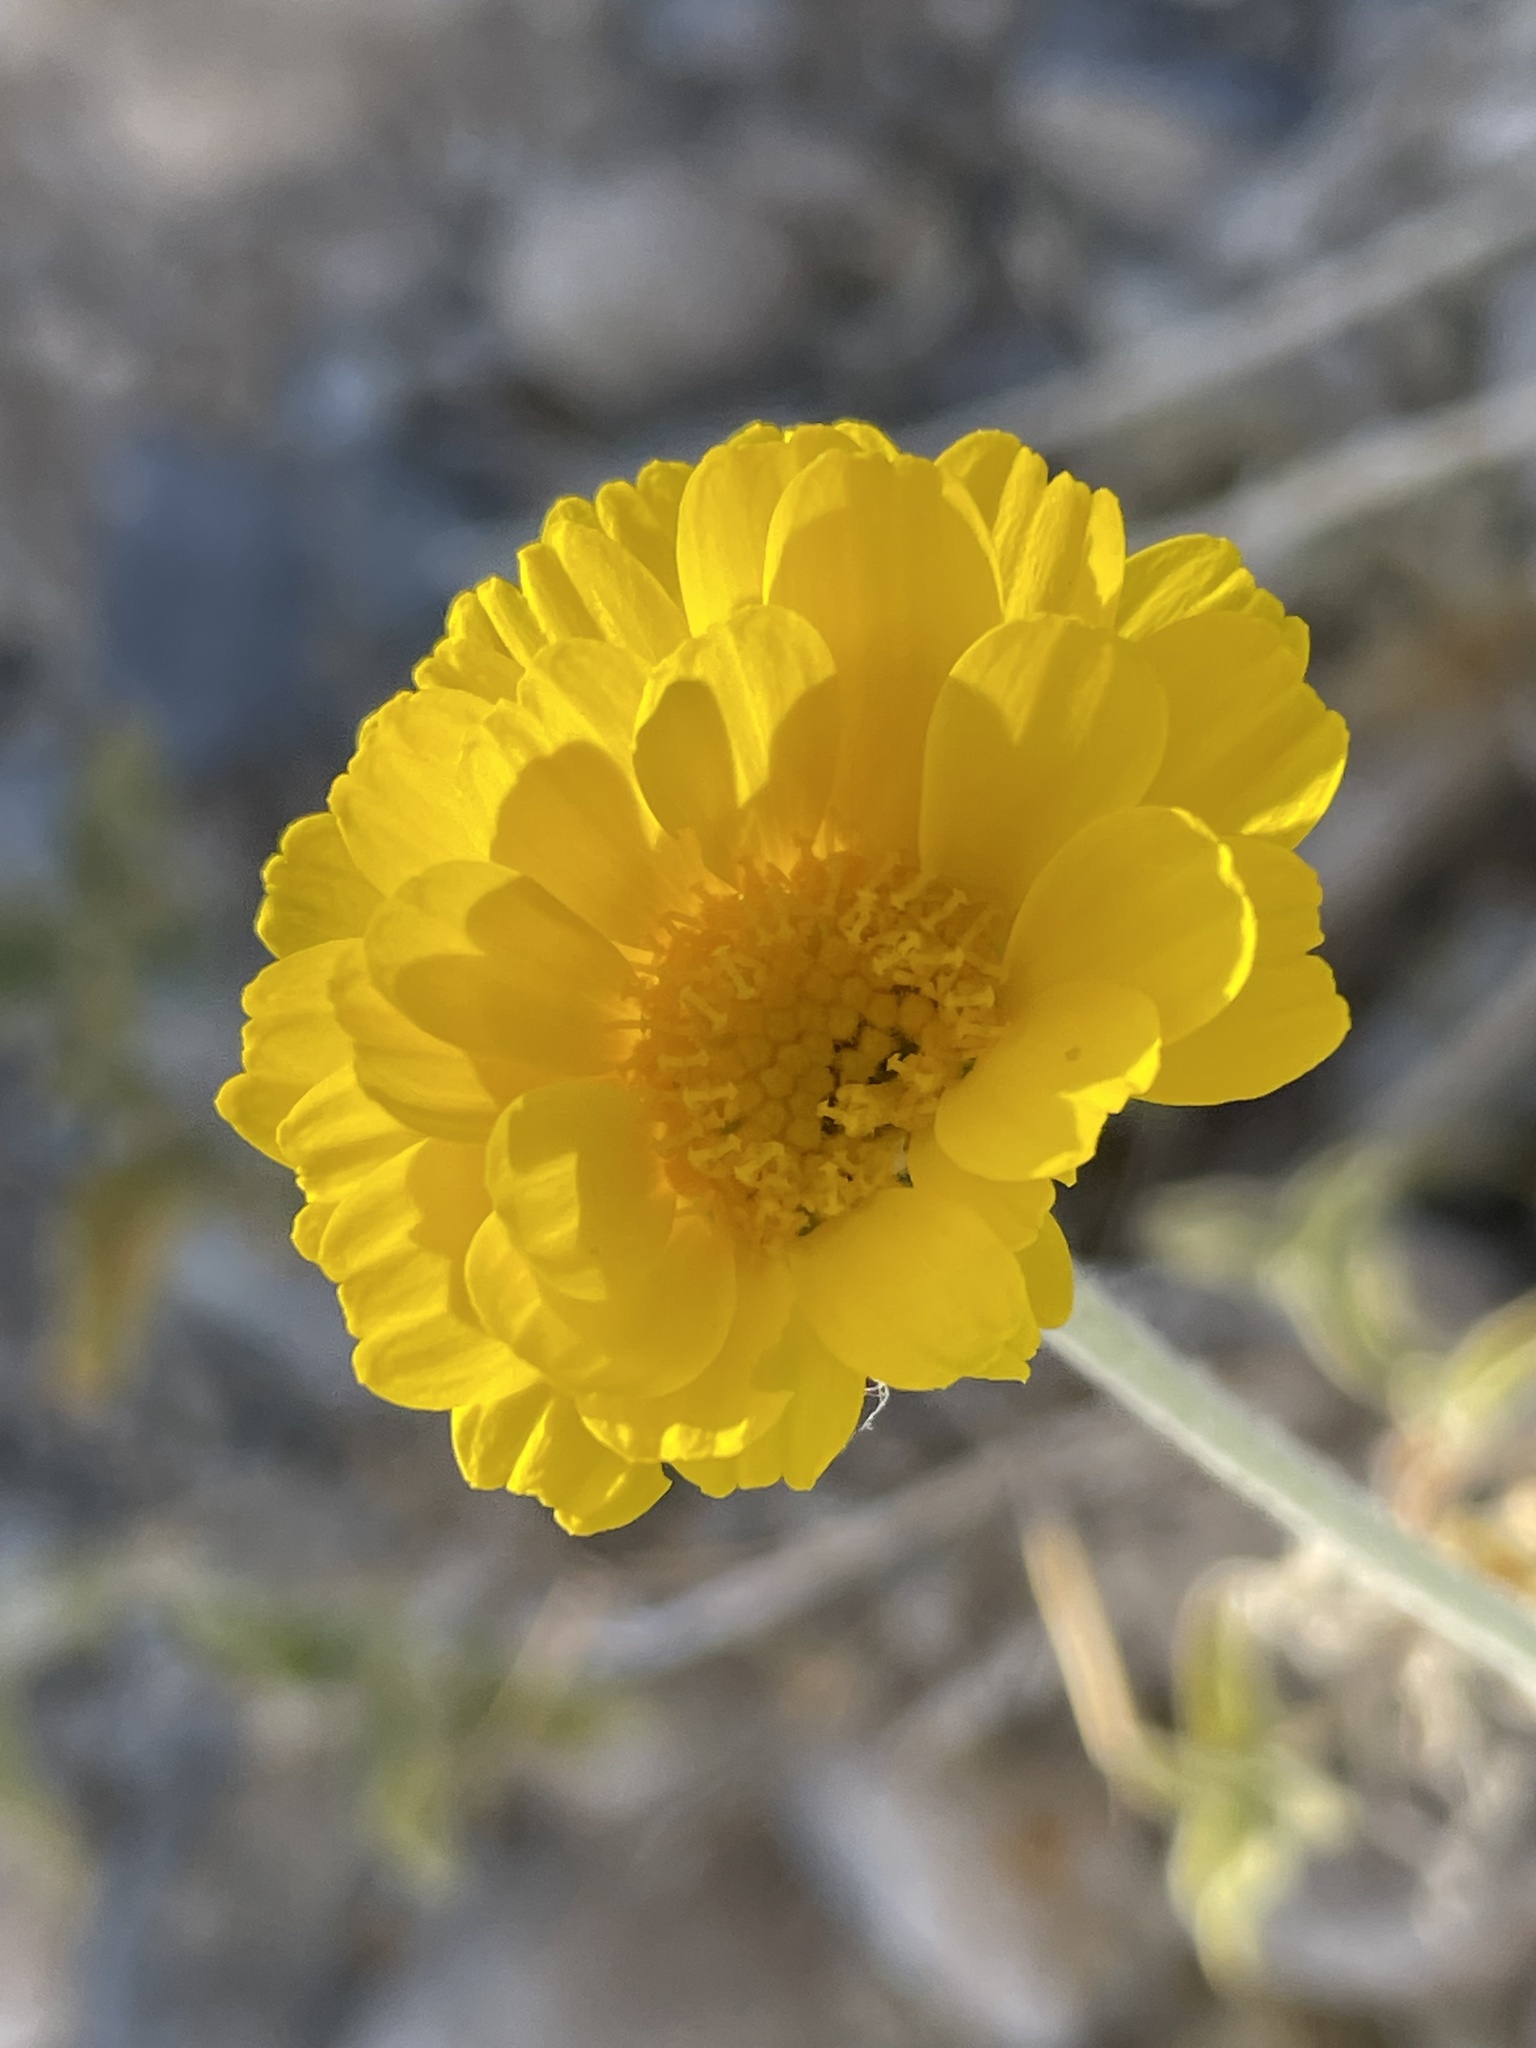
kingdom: Plantae
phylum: Tracheophyta
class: Magnoliopsida
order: Asterales
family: Asteraceae
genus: Baileya
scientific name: Baileya multiradiata
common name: Desert-marigold
